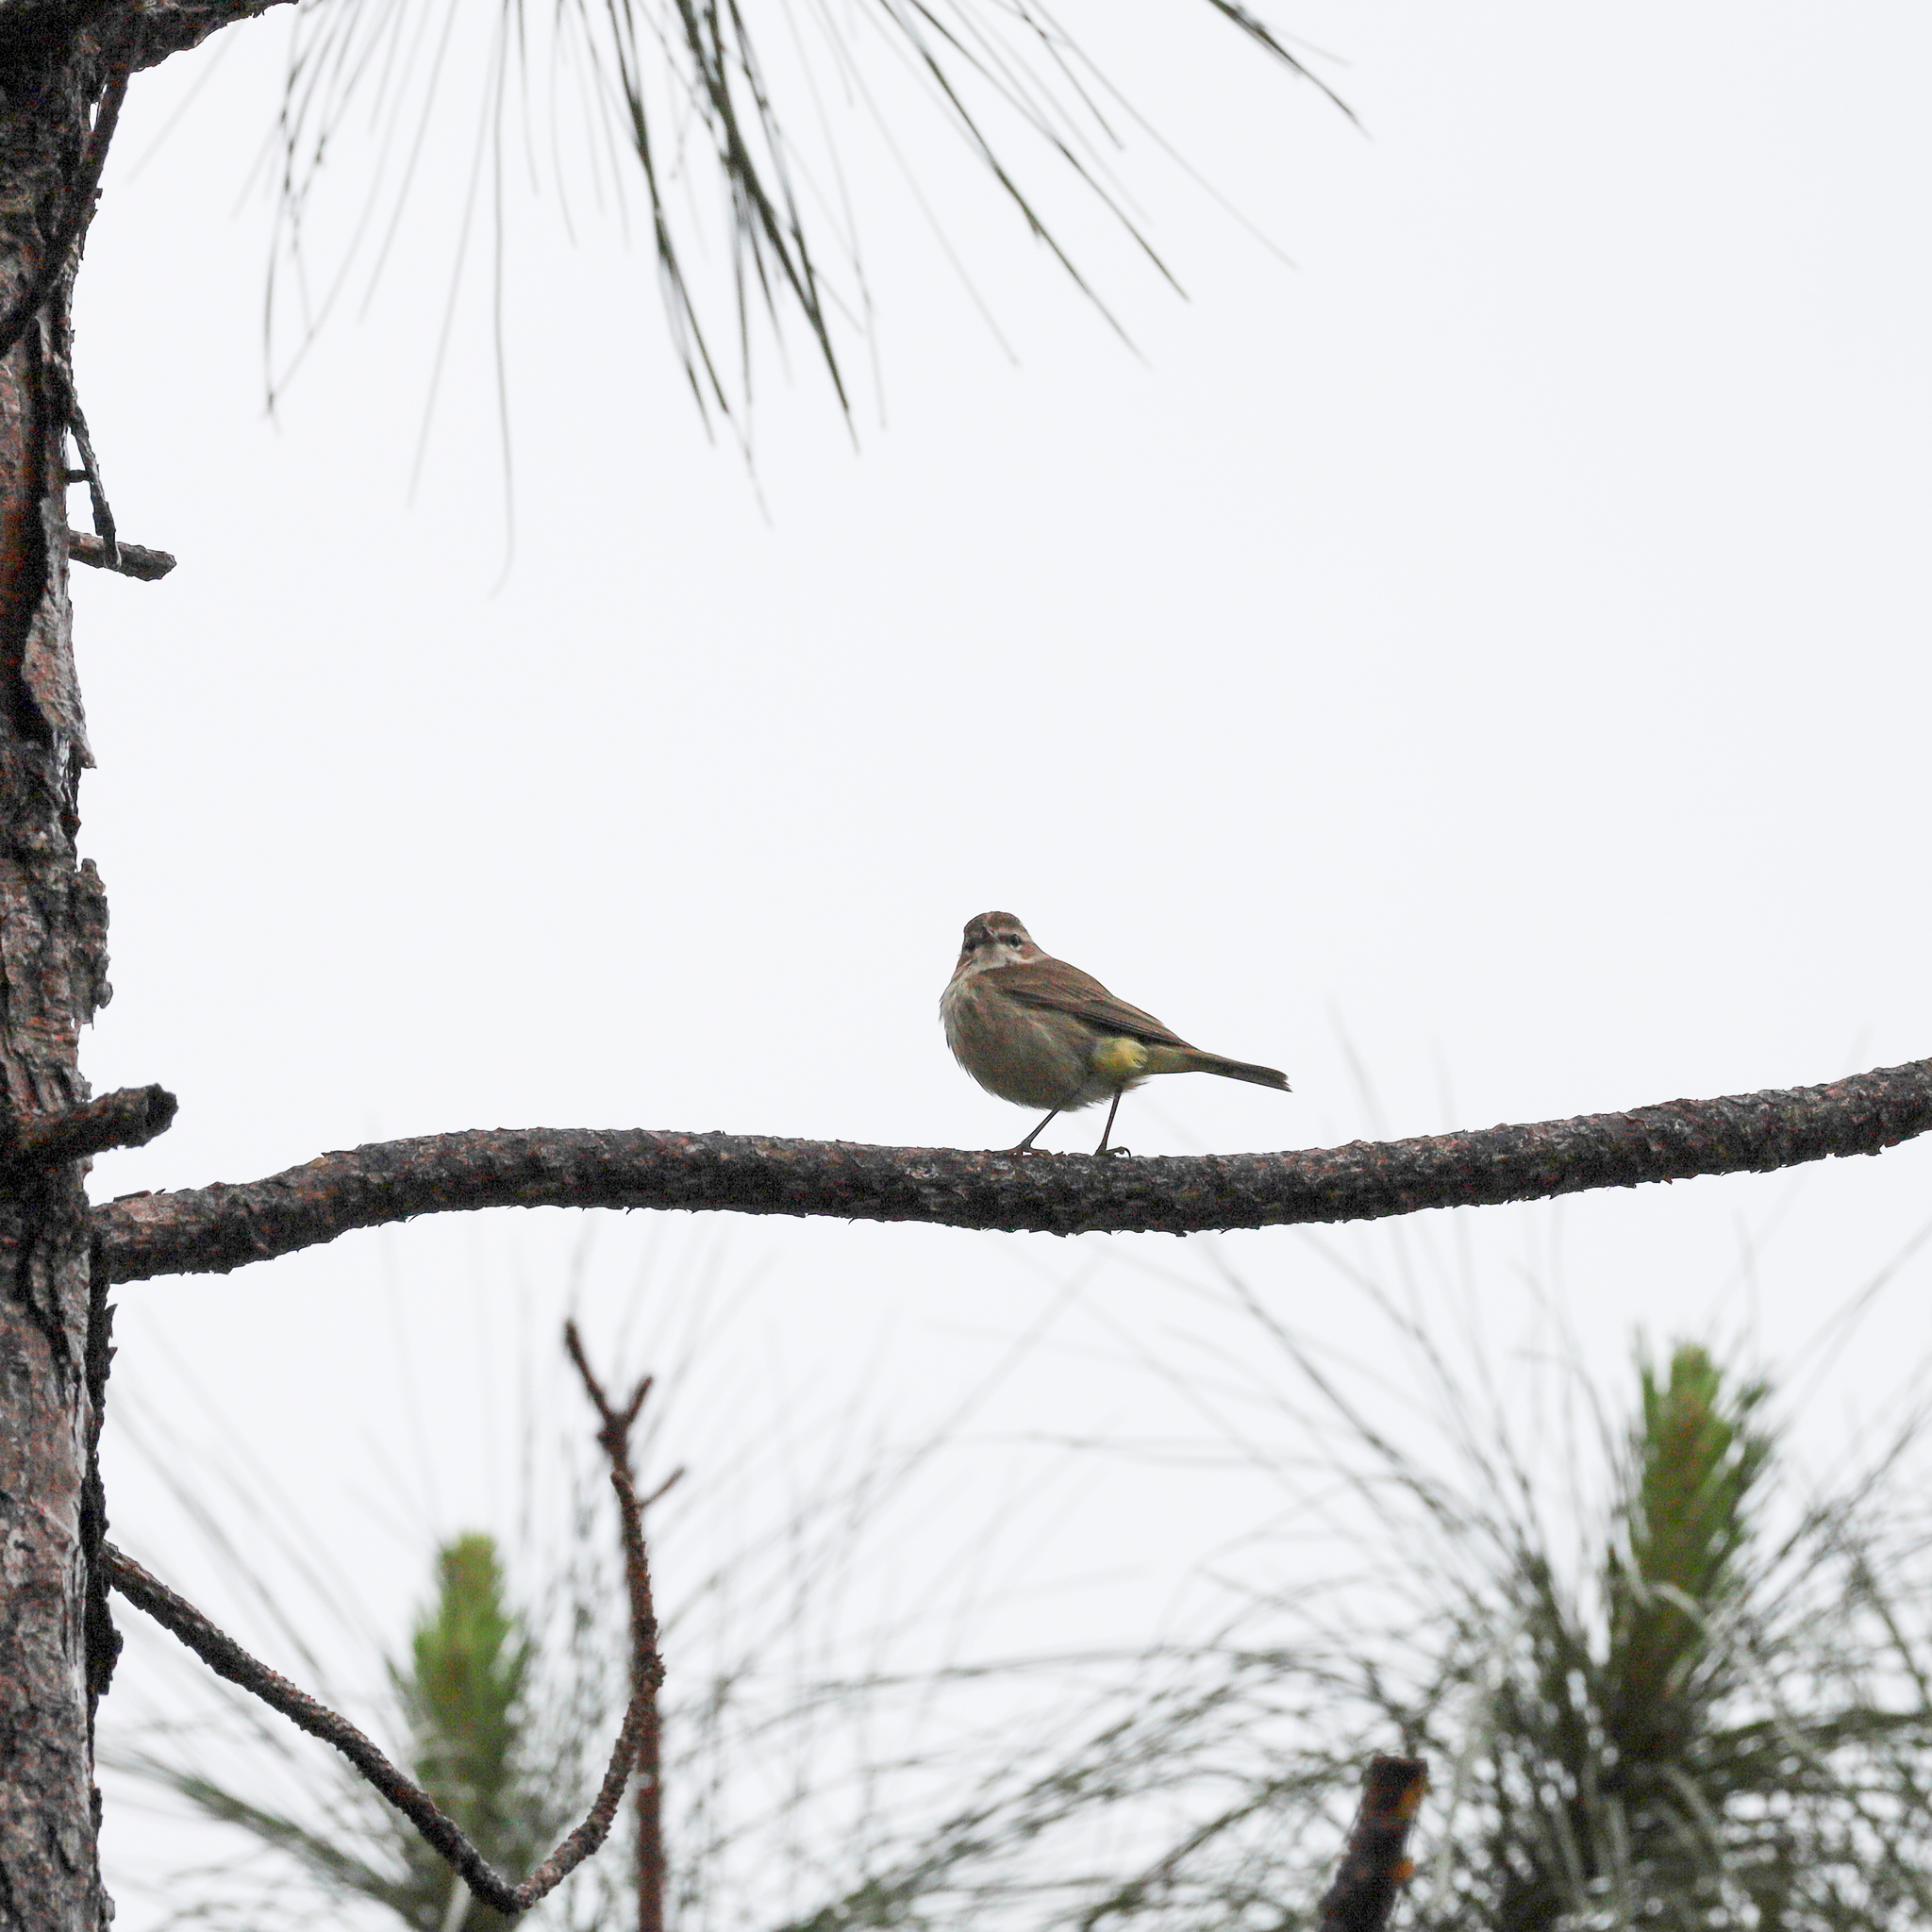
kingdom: Animalia
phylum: Chordata
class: Aves
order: Passeriformes
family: Parulidae
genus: Setophaga
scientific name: Setophaga palmarum
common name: Palm warbler
